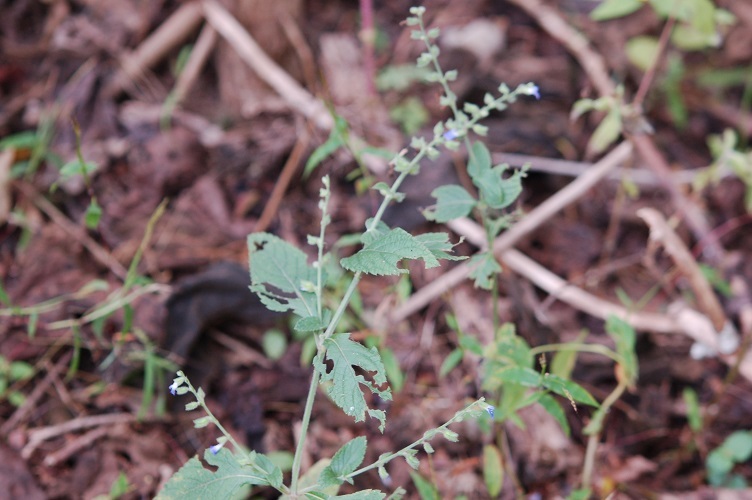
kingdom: Plantae
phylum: Tracheophyta
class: Magnoliopsida
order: Lamiales
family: Lamiaceae
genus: Salvia
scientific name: Salvia misella
